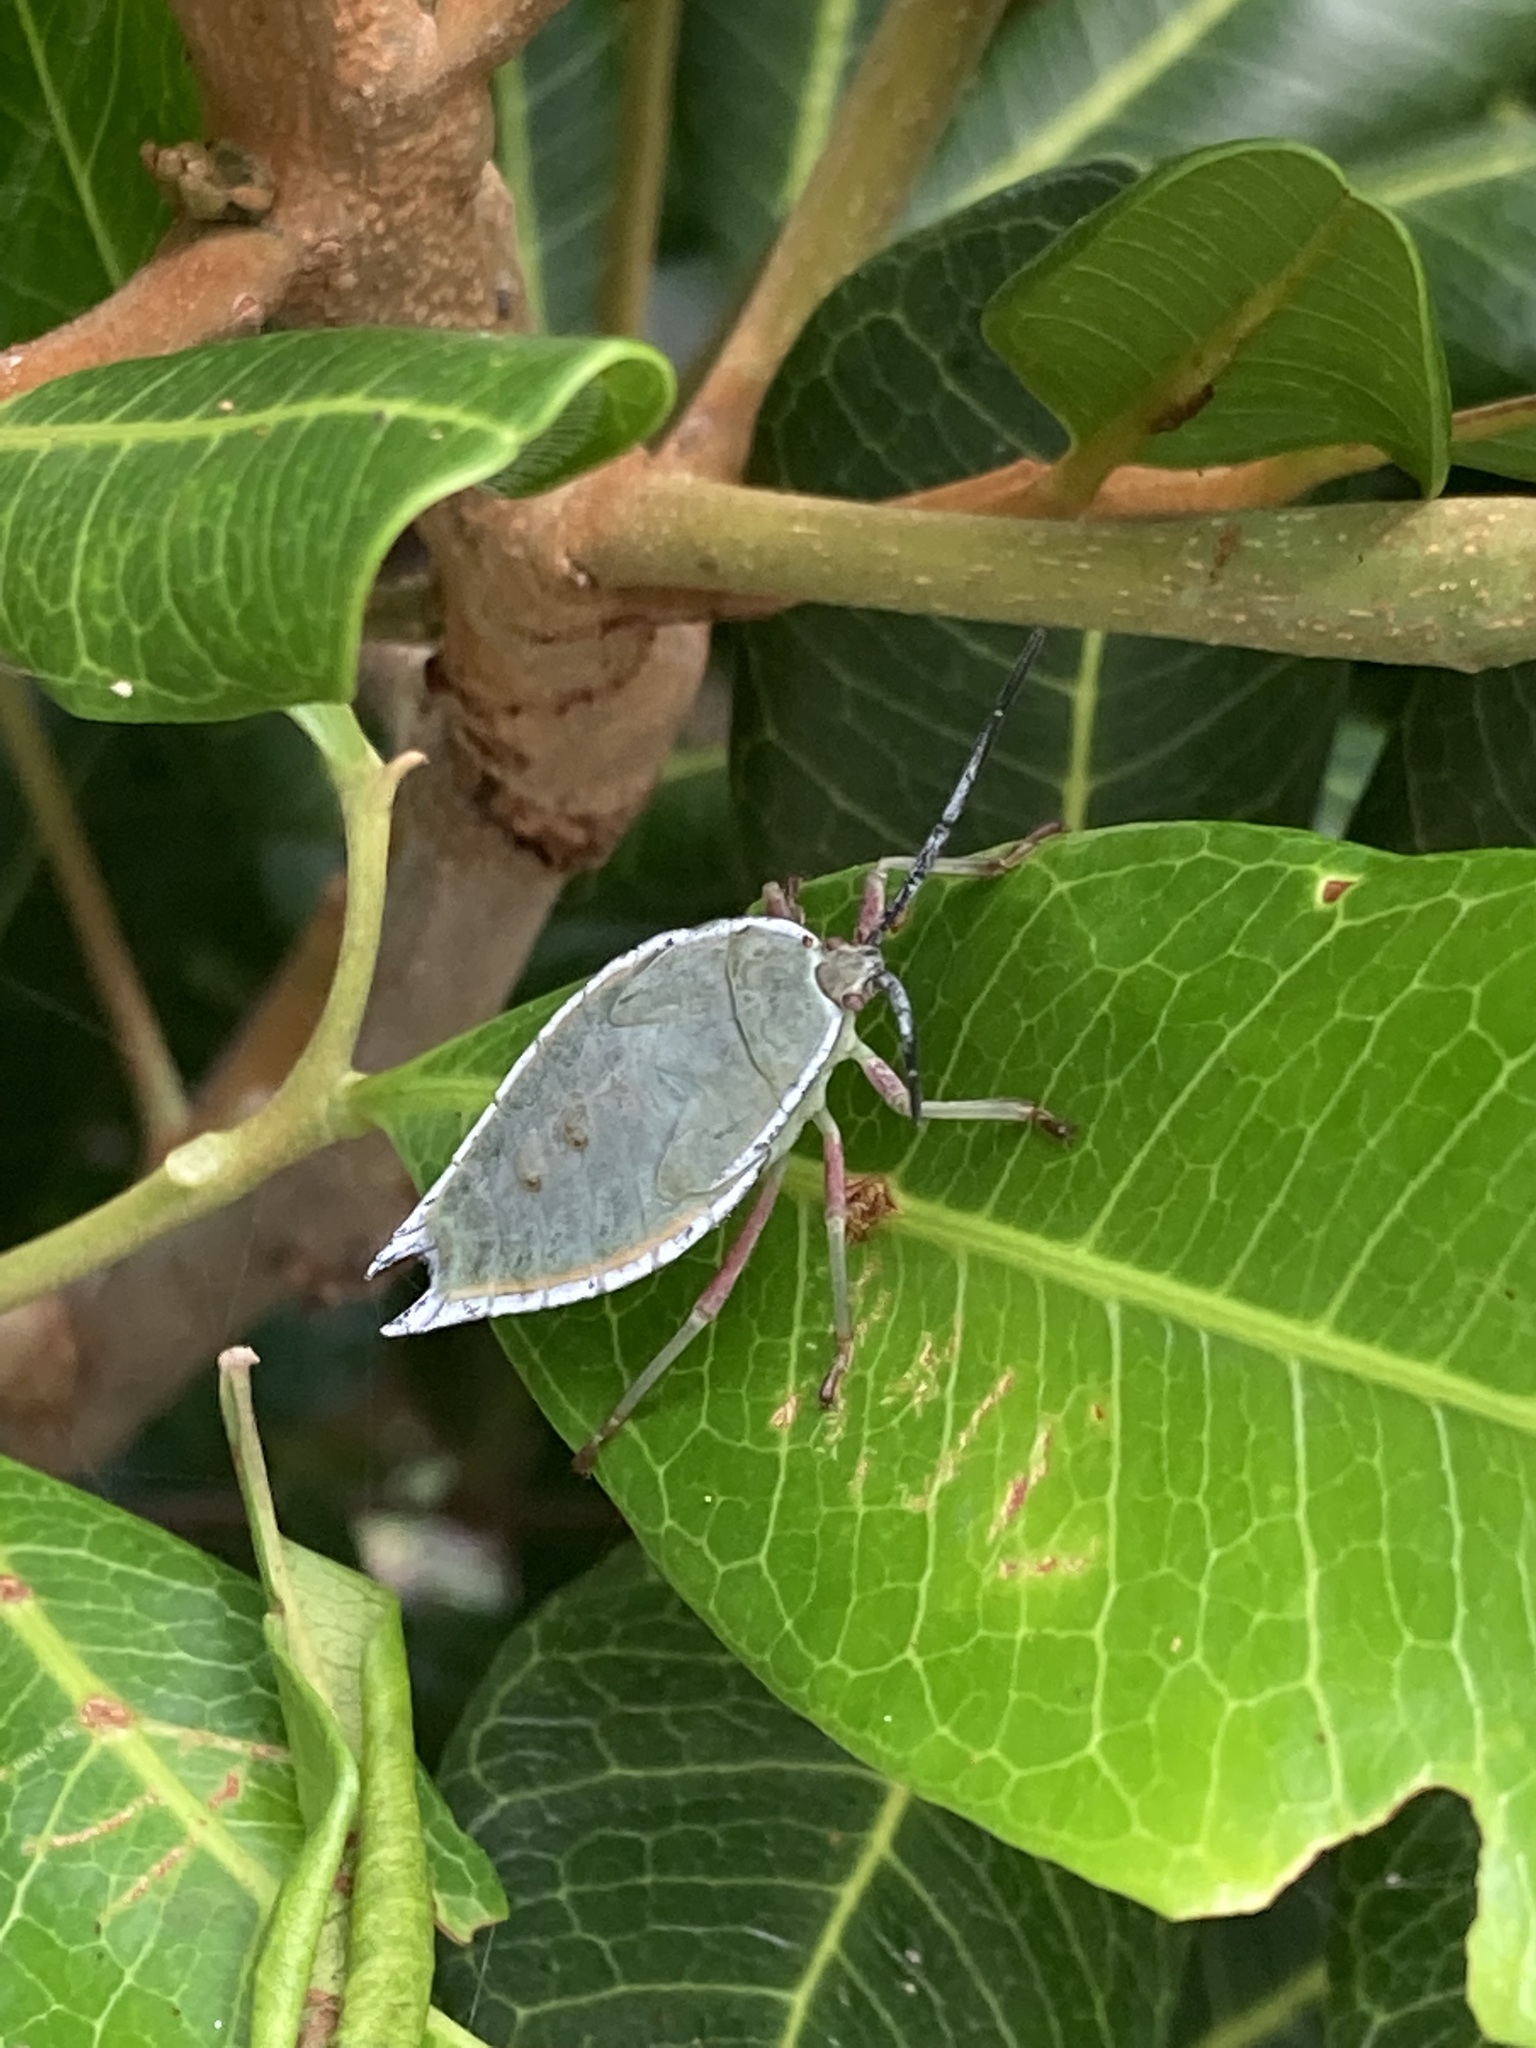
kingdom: Animalia
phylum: Arthropoda
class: Insecta
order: Hemiptera
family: Tessaratomidae
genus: Lyramorpha
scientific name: Lyramorpha rosea
